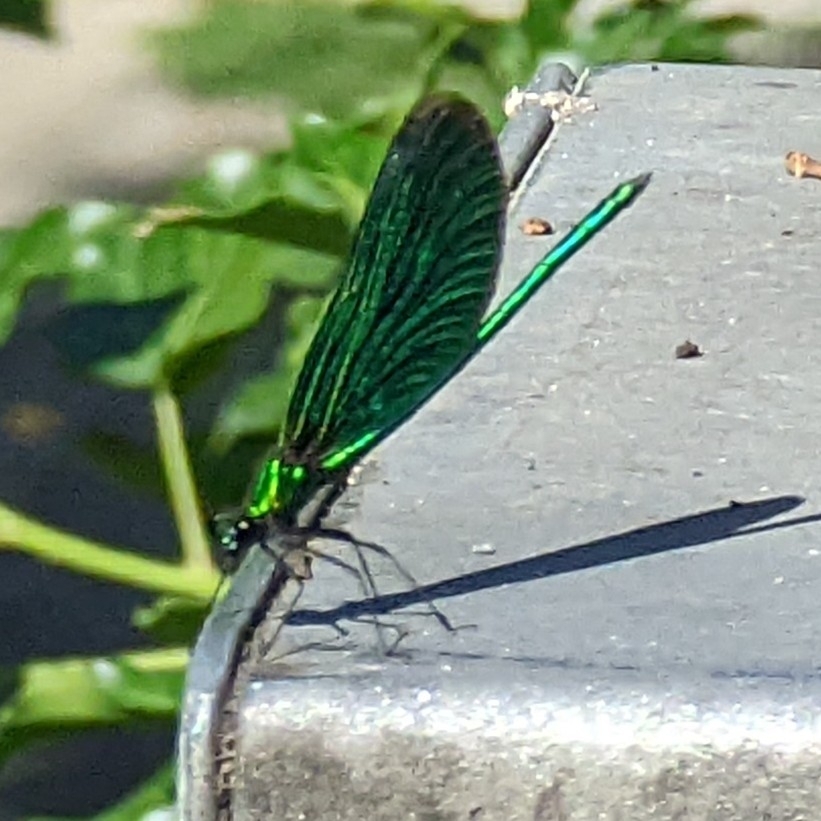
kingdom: Animalia
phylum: Arthropoda
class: Insecta
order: Odonata
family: Calopterygidae
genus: Calopteryx
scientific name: Calopteryx virgo
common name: Beautiful demoiselle
